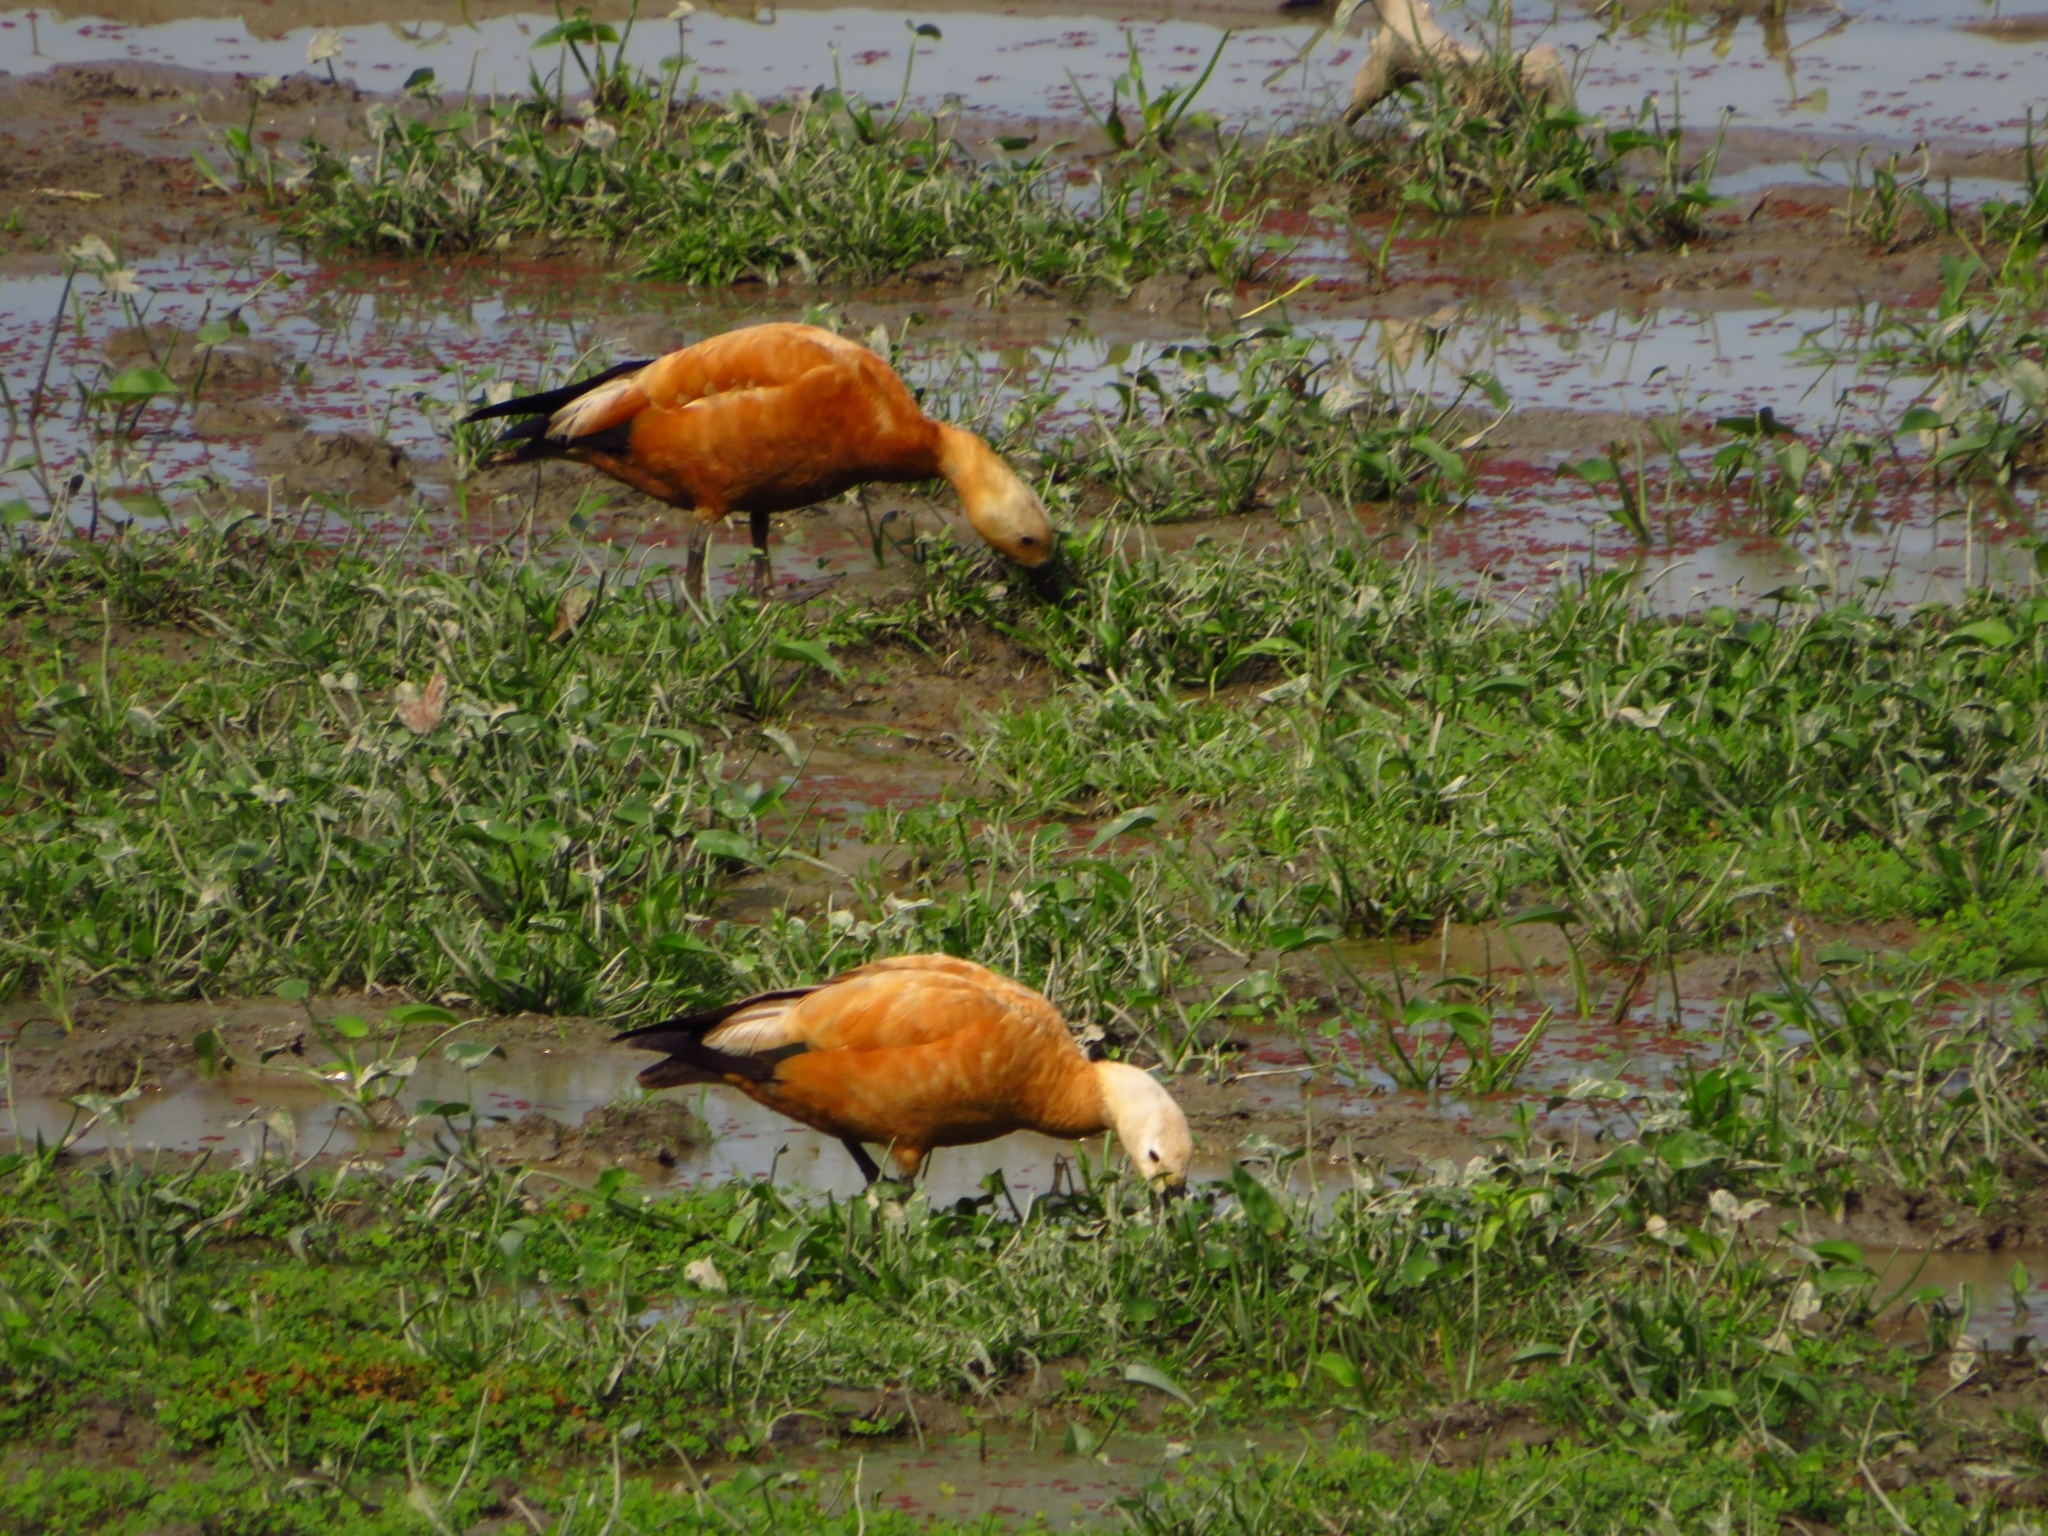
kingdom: Animalia
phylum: Chordata
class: Aves
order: Anseriformes
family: Anatidae
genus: Tadorna
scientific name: Tadorna ferruginea
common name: Ruddy shelduck
